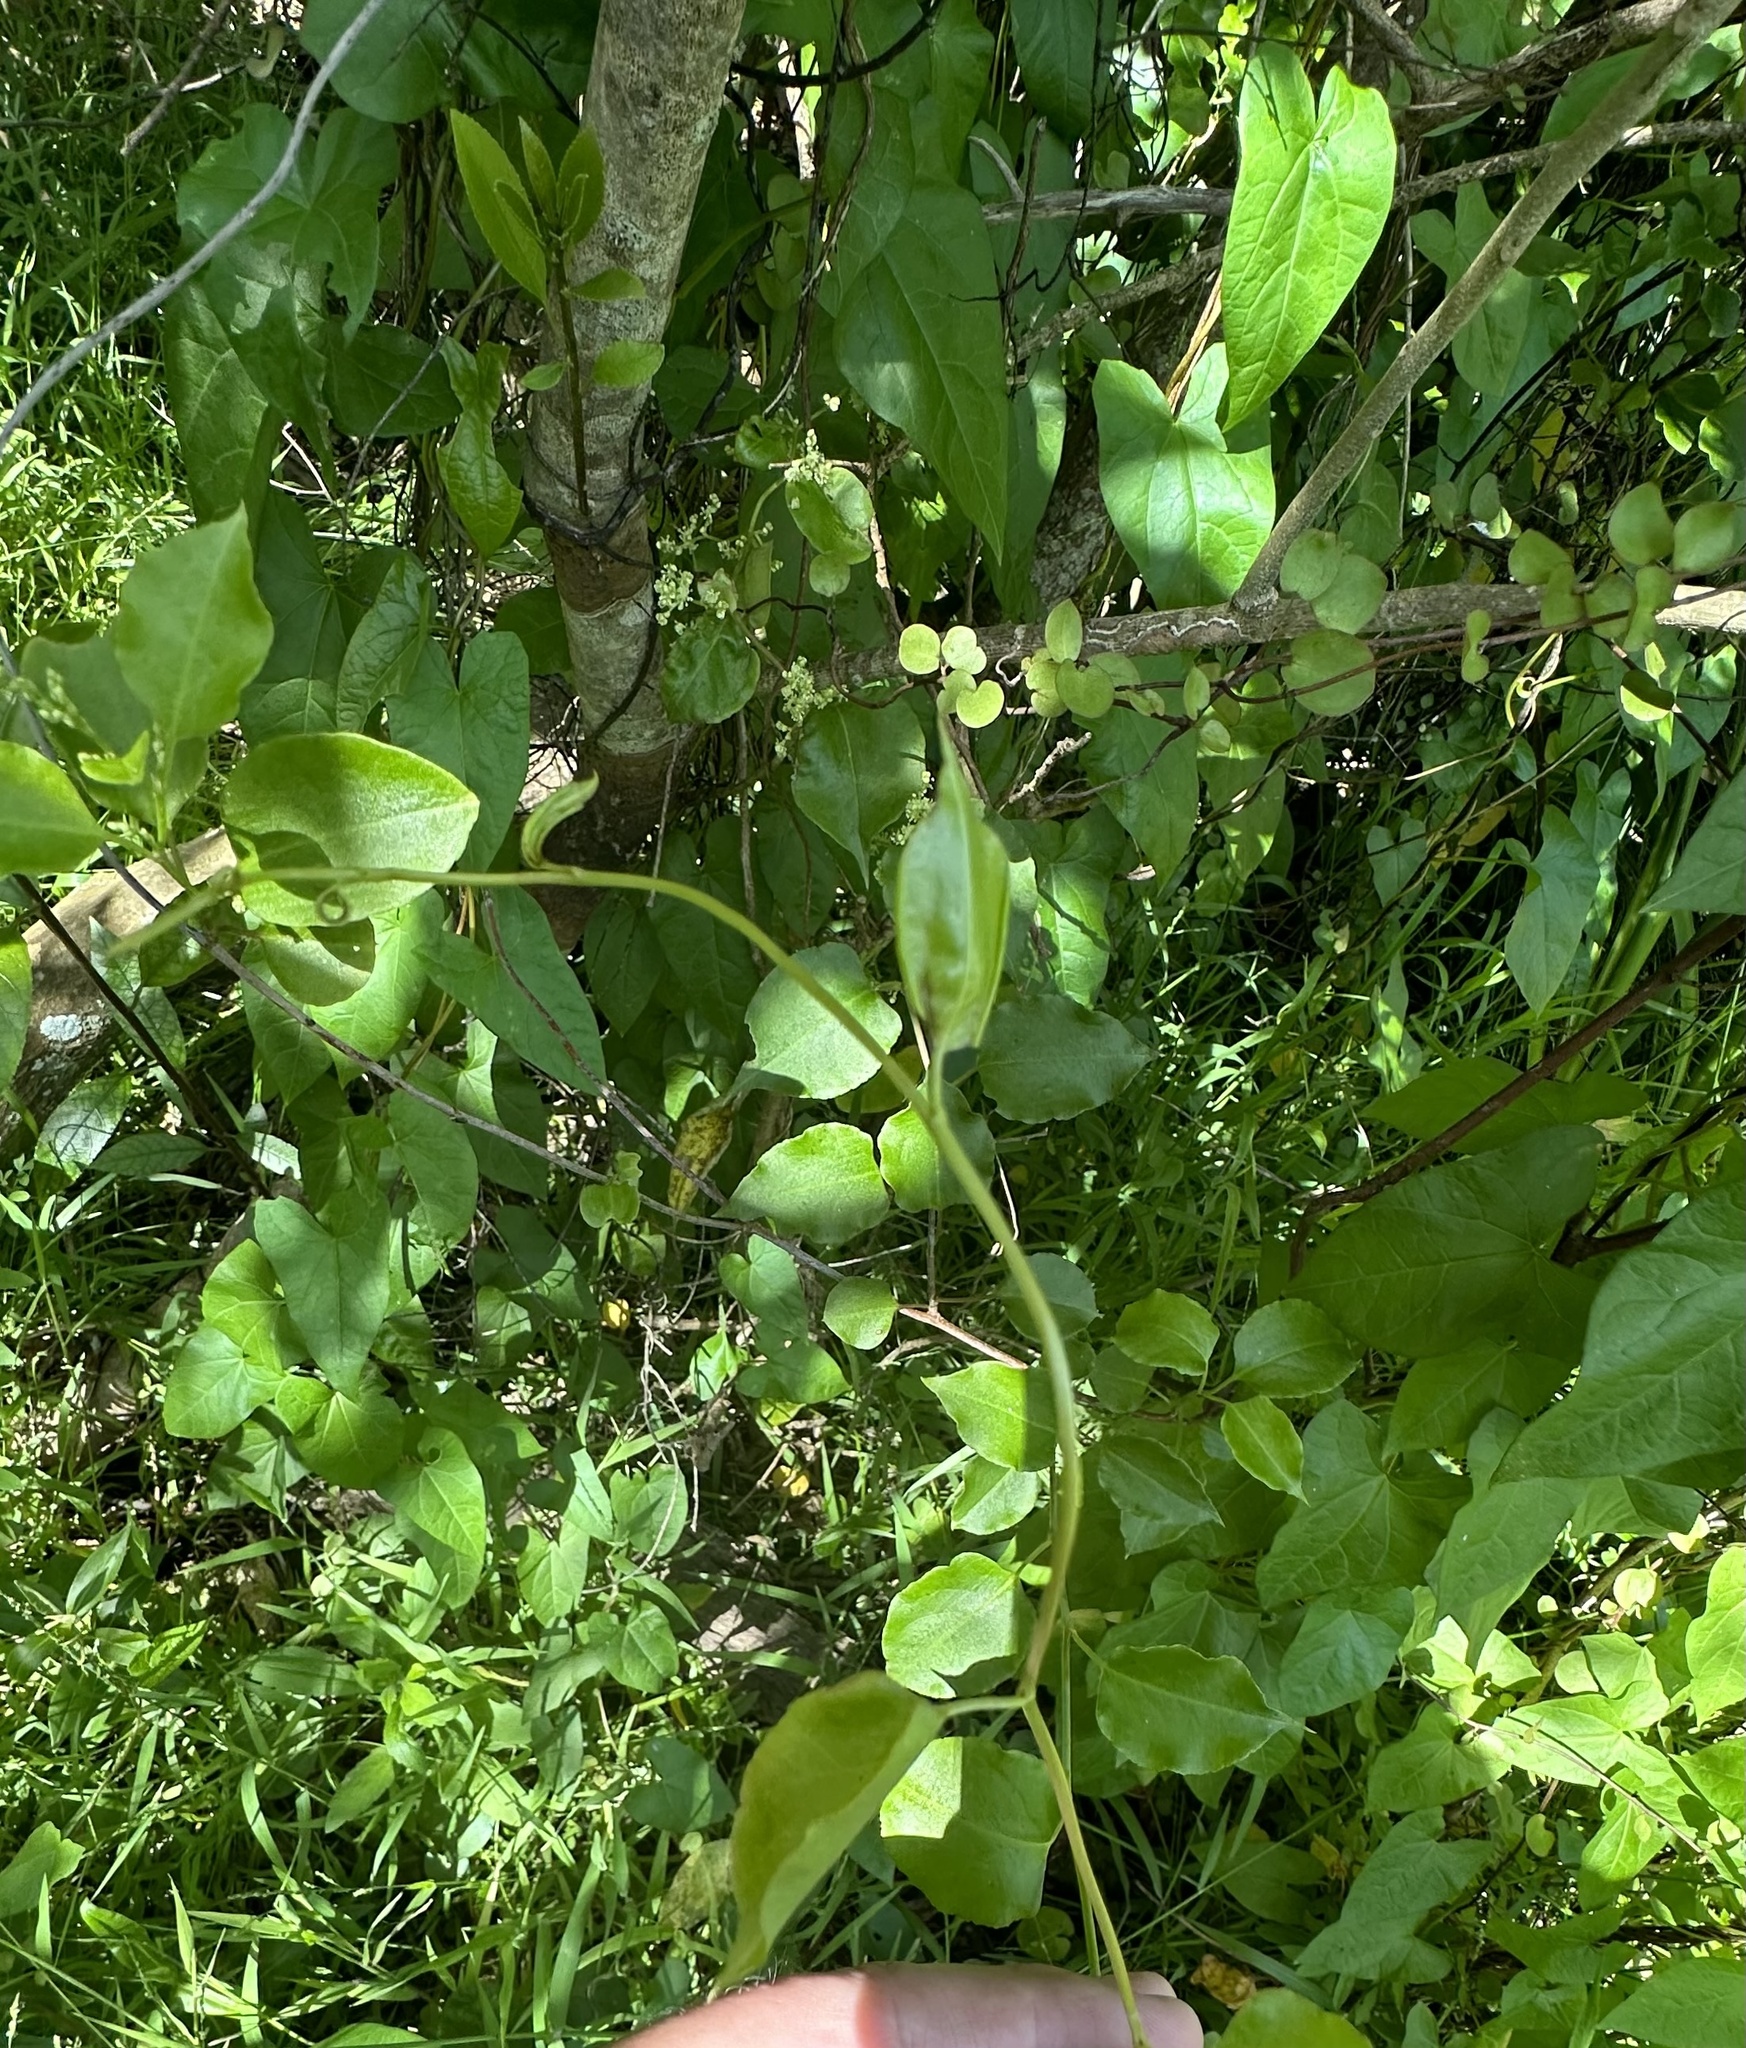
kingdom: Plantae
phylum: Tracheophyta
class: Magnoliopsida
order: Caryophyllales
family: Polygonaceae
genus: Muehlenbeckia
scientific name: Muehlenbeckia australis
